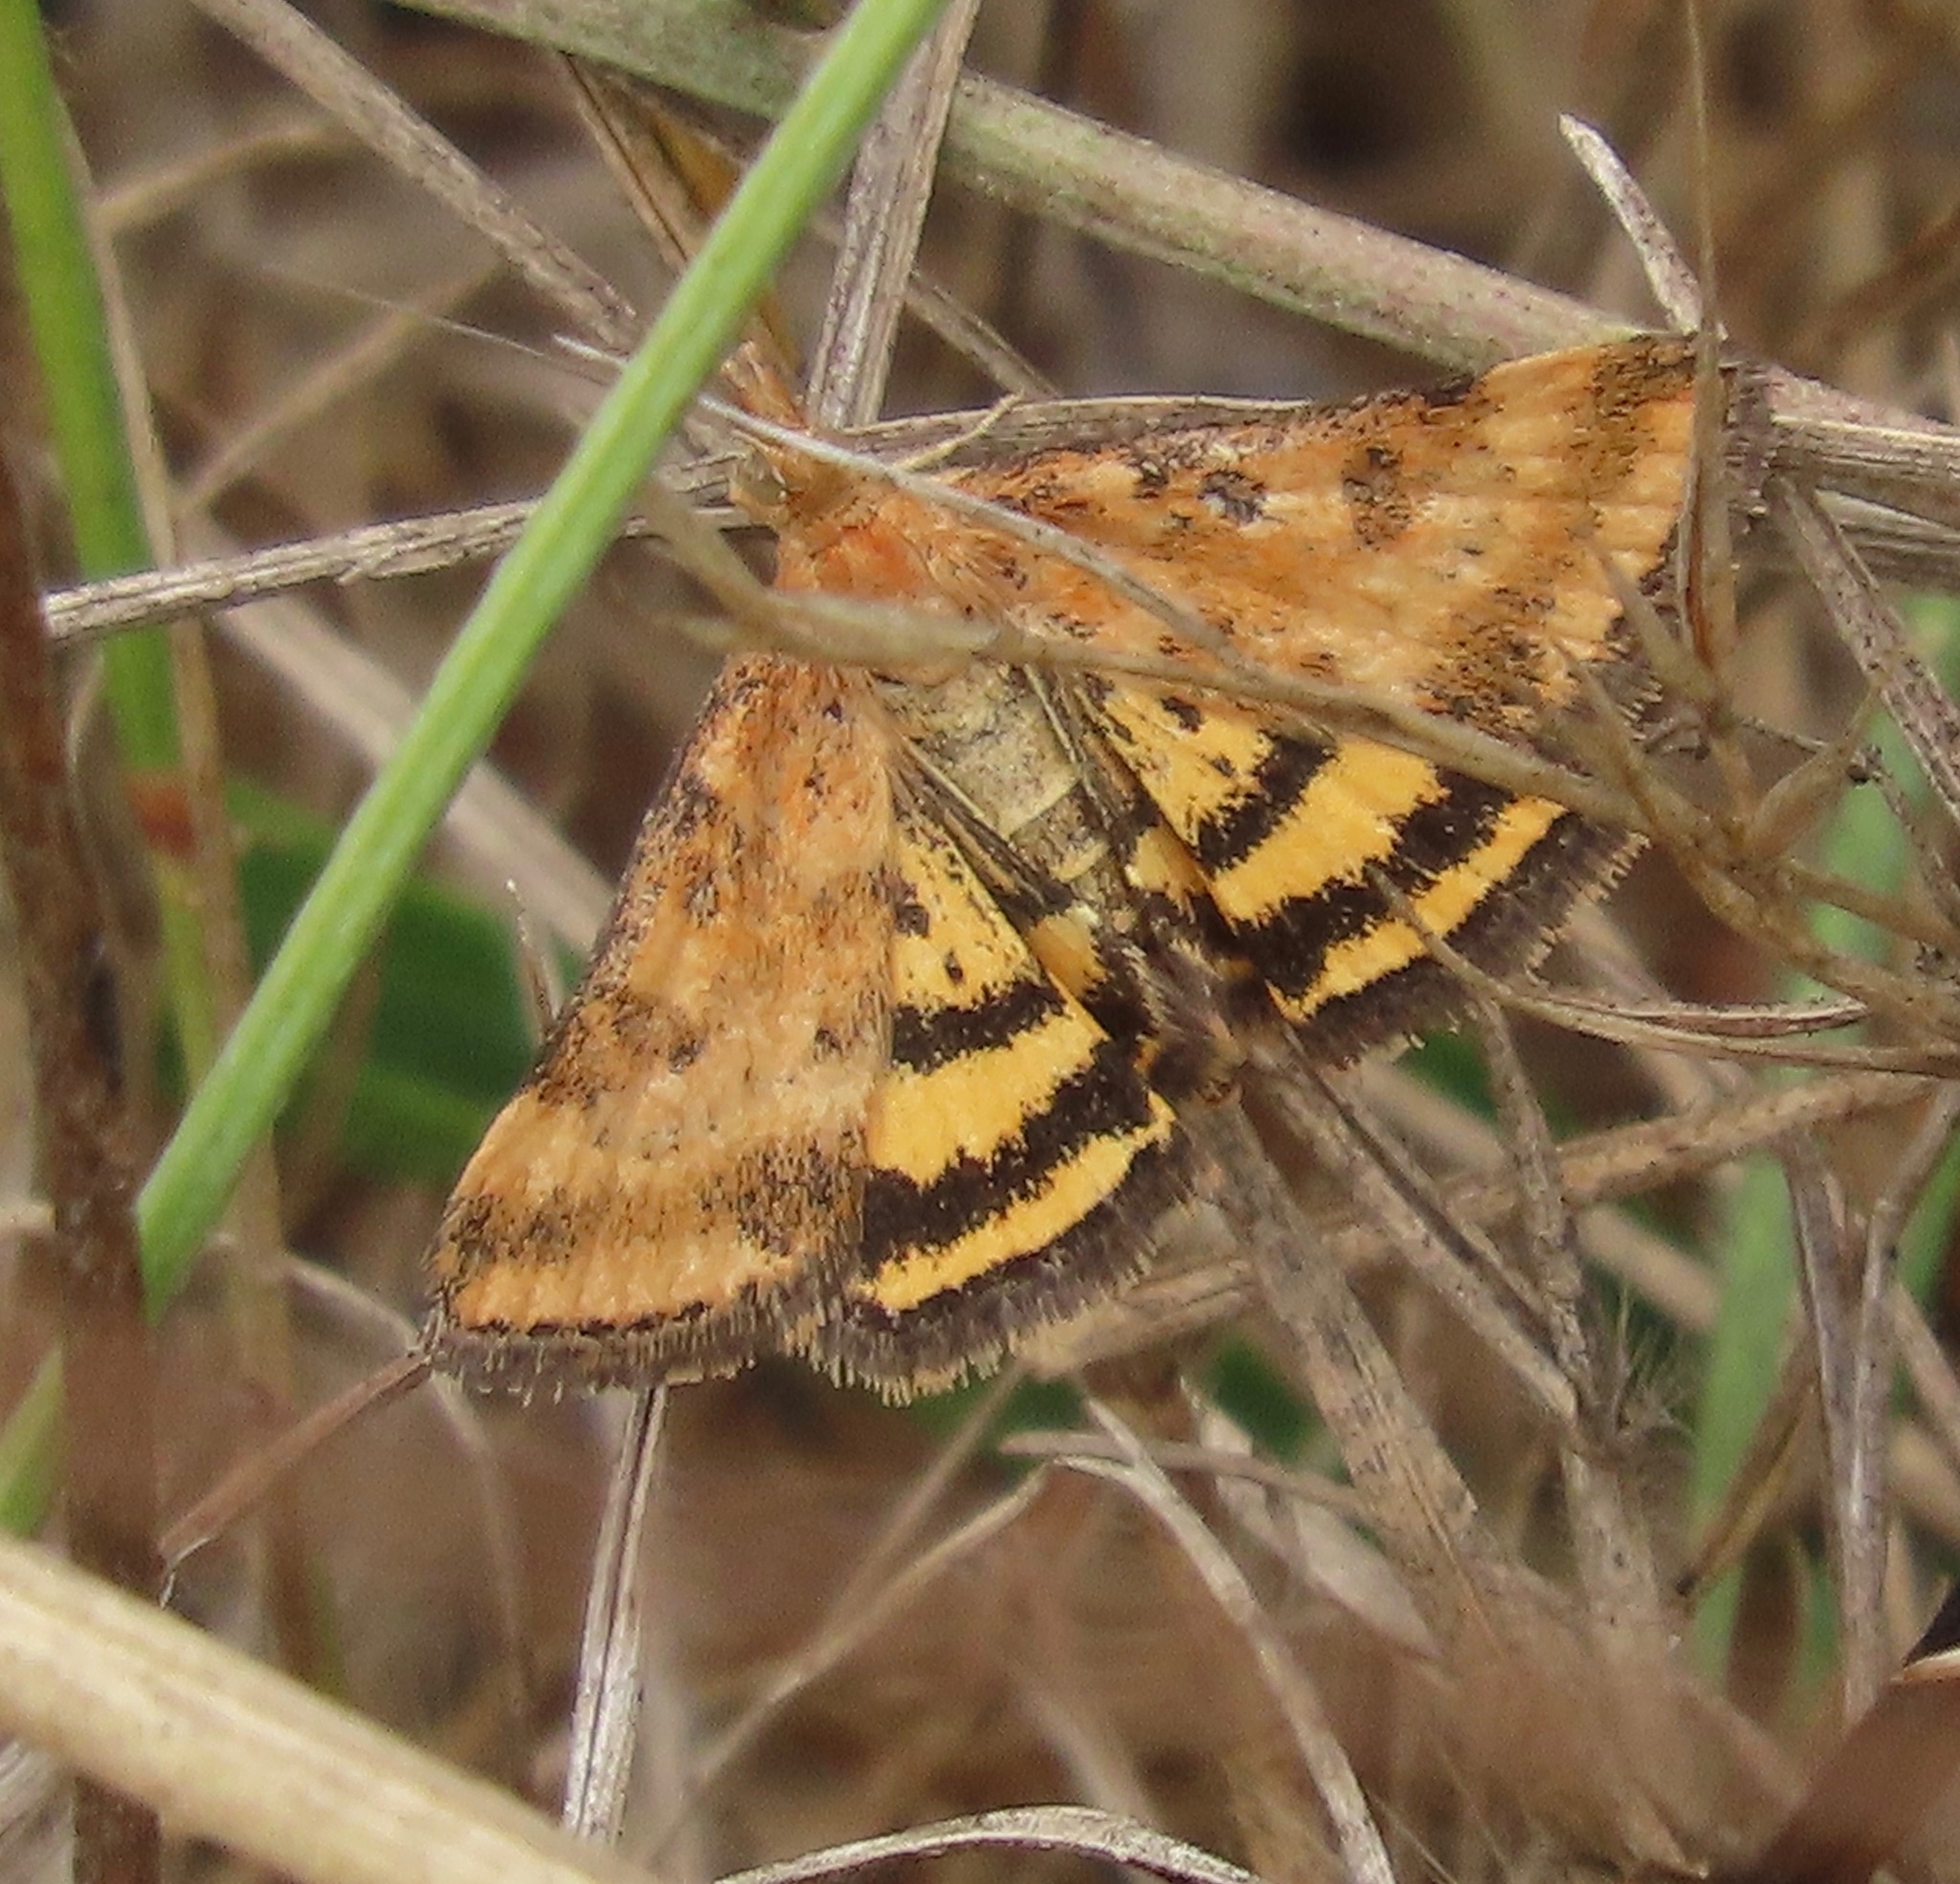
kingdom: Animalia
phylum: Arthropoda
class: Insecta
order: Lepidoptera
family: Crambidae
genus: Pyrausta
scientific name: Pyrausta subsequalis
